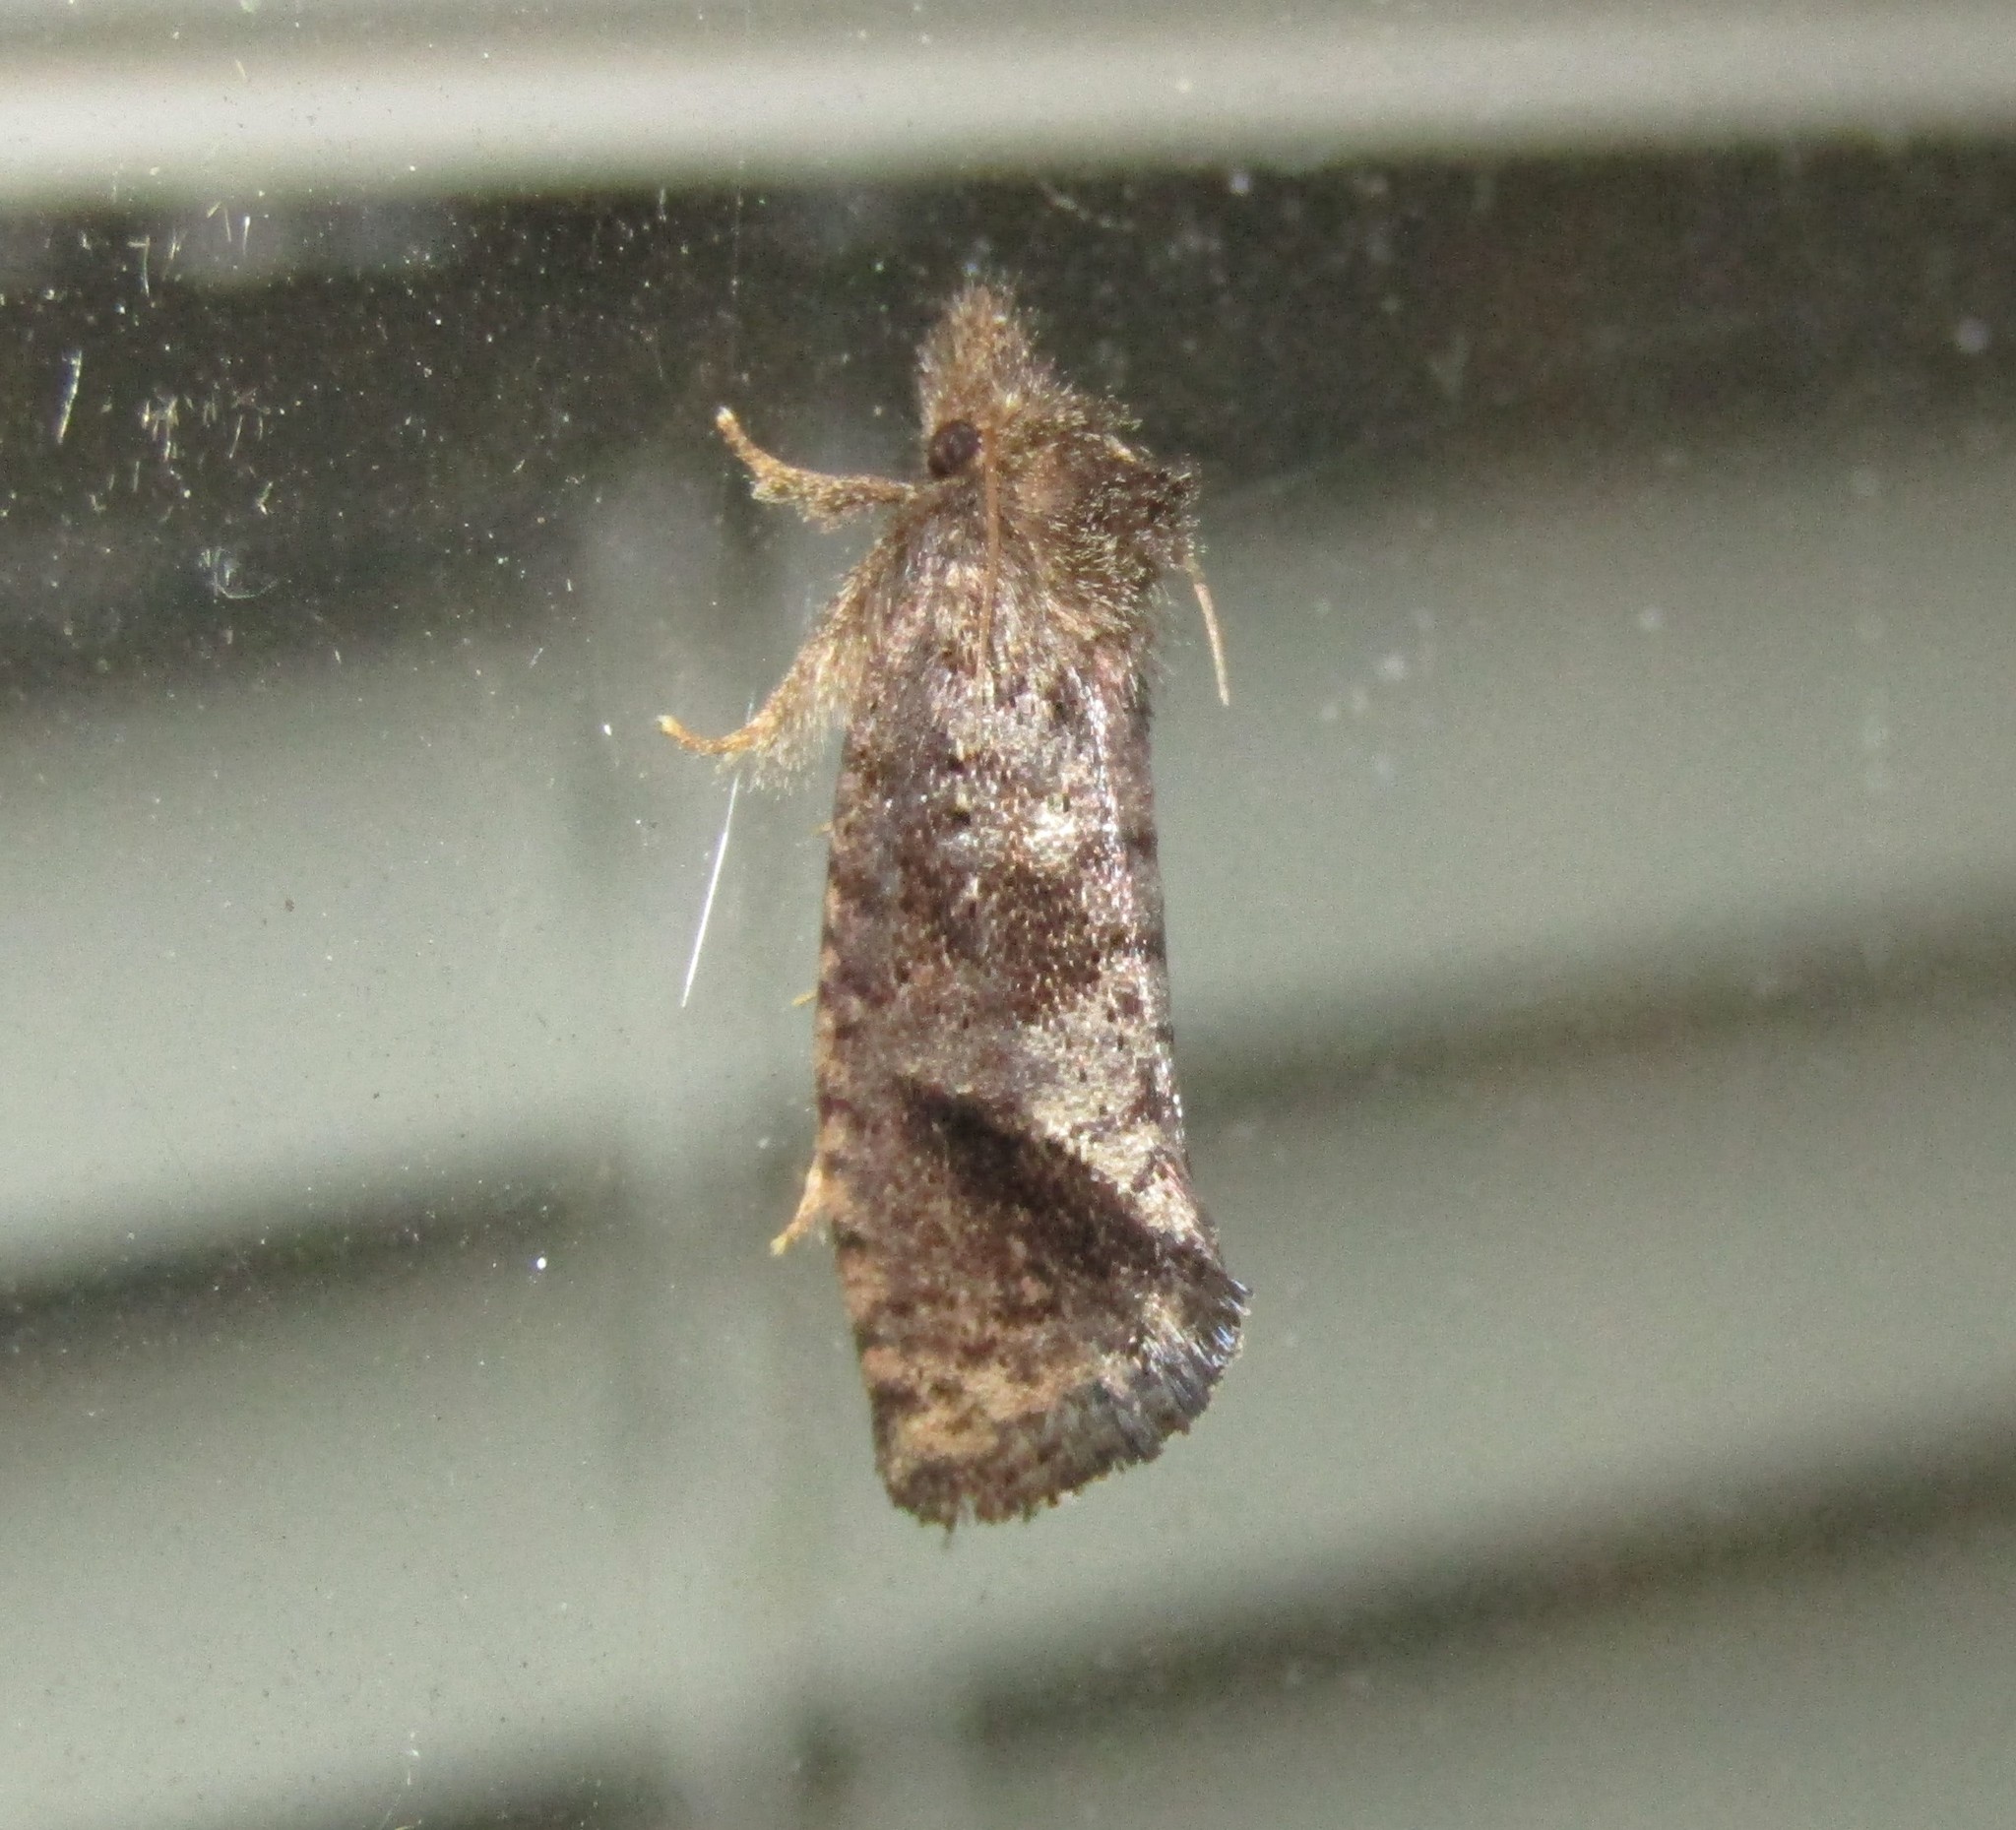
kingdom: Animalia
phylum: Arthropoda
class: Insecta
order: Lepidoptera
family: Tineidae
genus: Acrolophus
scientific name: Acrolophus texanella
